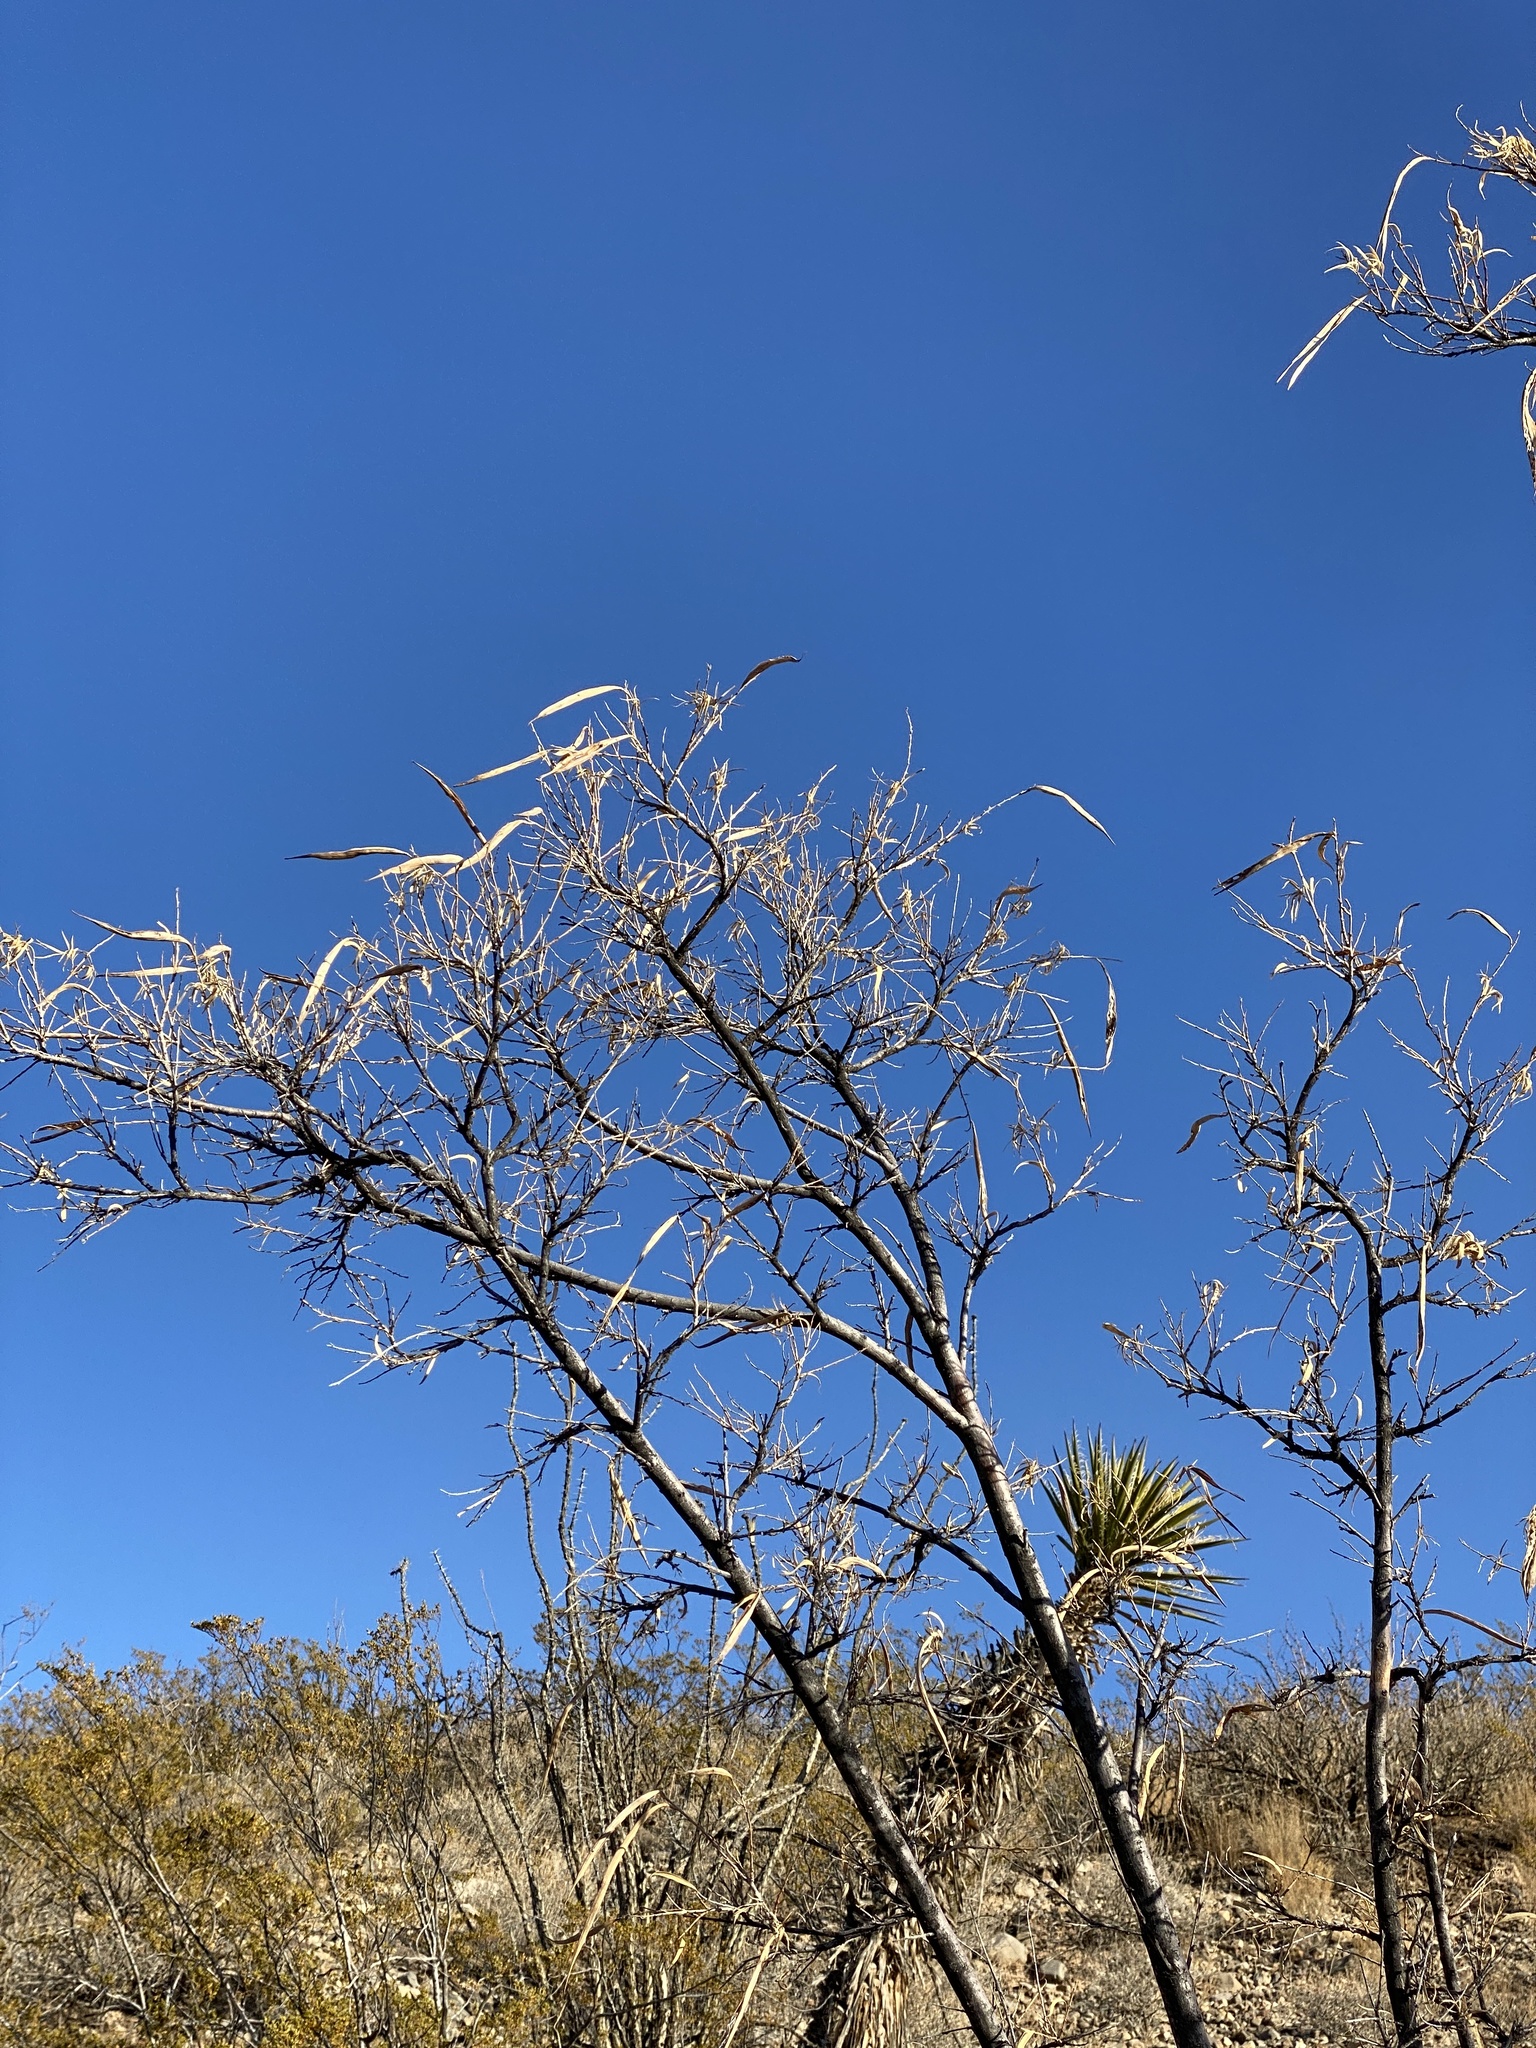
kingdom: Plantae
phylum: Tracheophyta
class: Magnoliopsida
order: Lamiales
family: Bignoniaceae
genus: Chilopsis
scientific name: Chilopsis linearis
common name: Desert-willow
